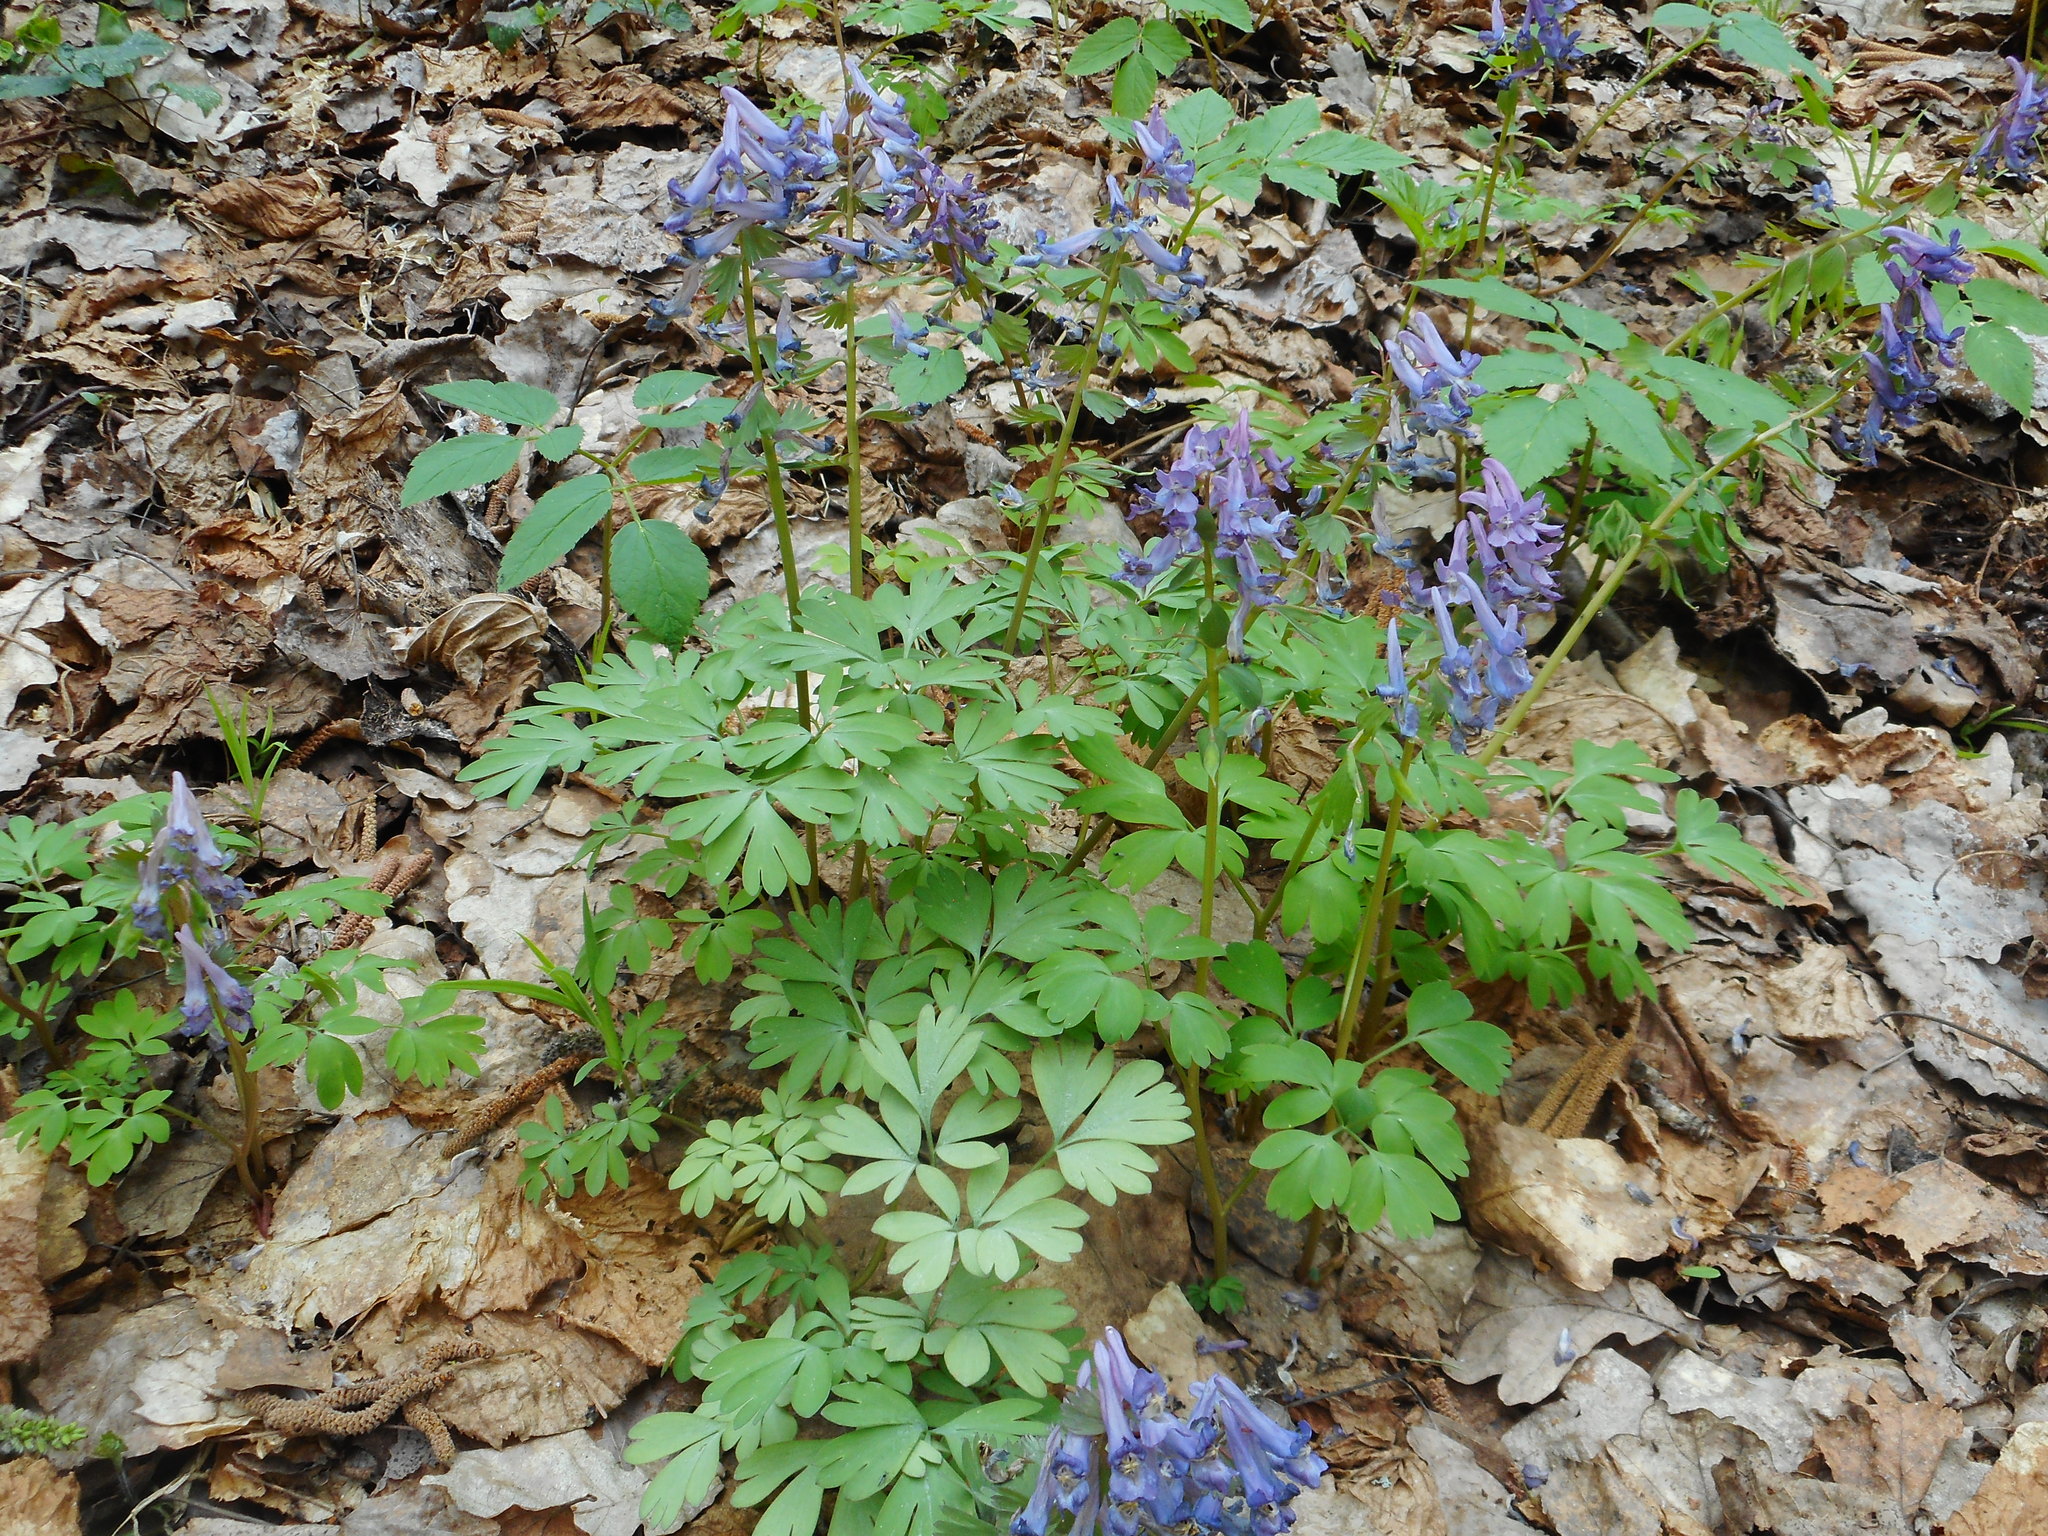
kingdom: Plantae
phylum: Tracheophyta
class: Magnoliopsida
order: Ranunculales
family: Papaveraceae
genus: Corydalis
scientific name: Corydalis solida
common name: Bird-in-a-bush
